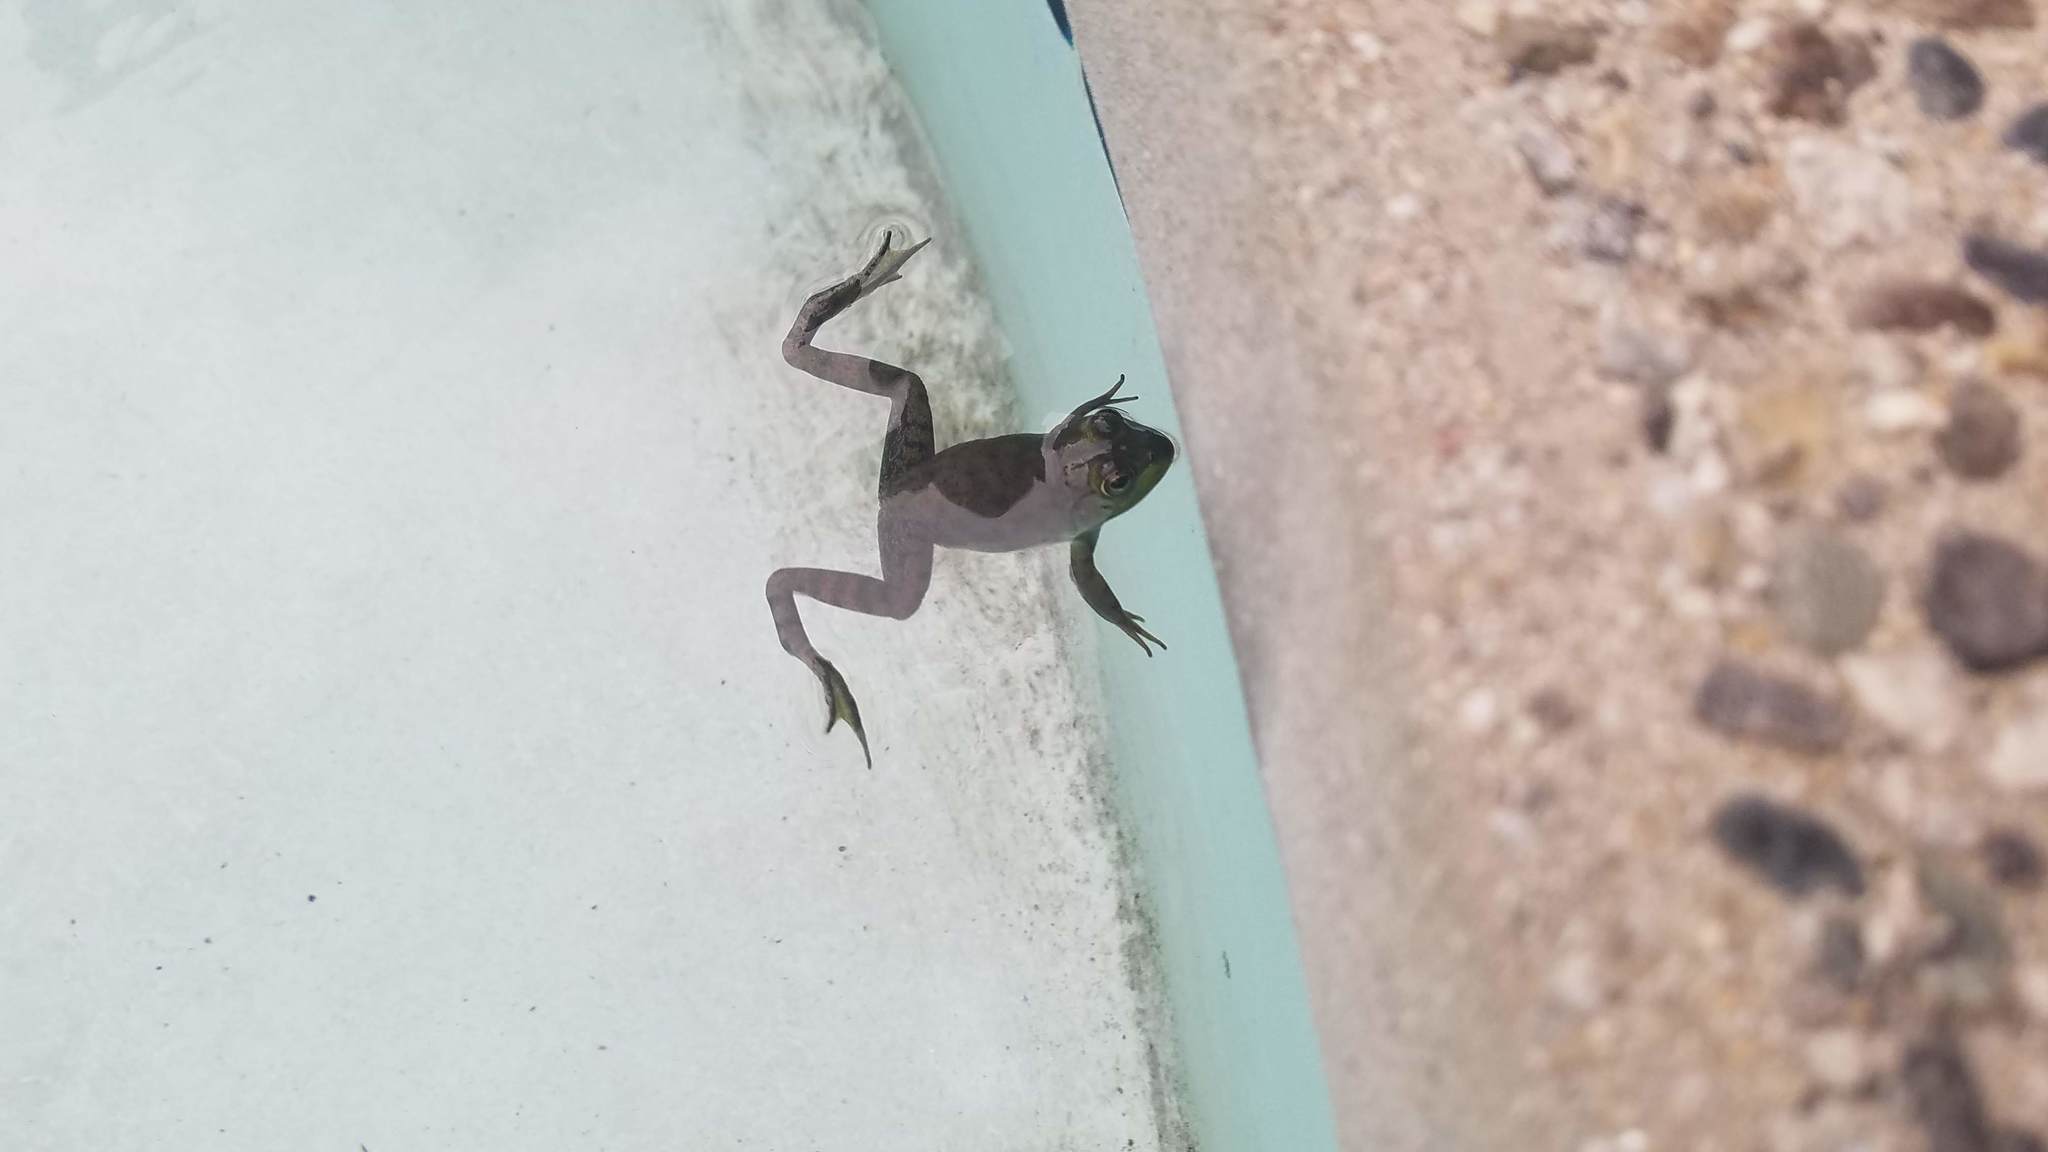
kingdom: Animalia
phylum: Chordata
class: Amphibia
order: Anura
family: Ranidae
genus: Lithobates
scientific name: Lithobates catesbeianus
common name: American bullfrog
